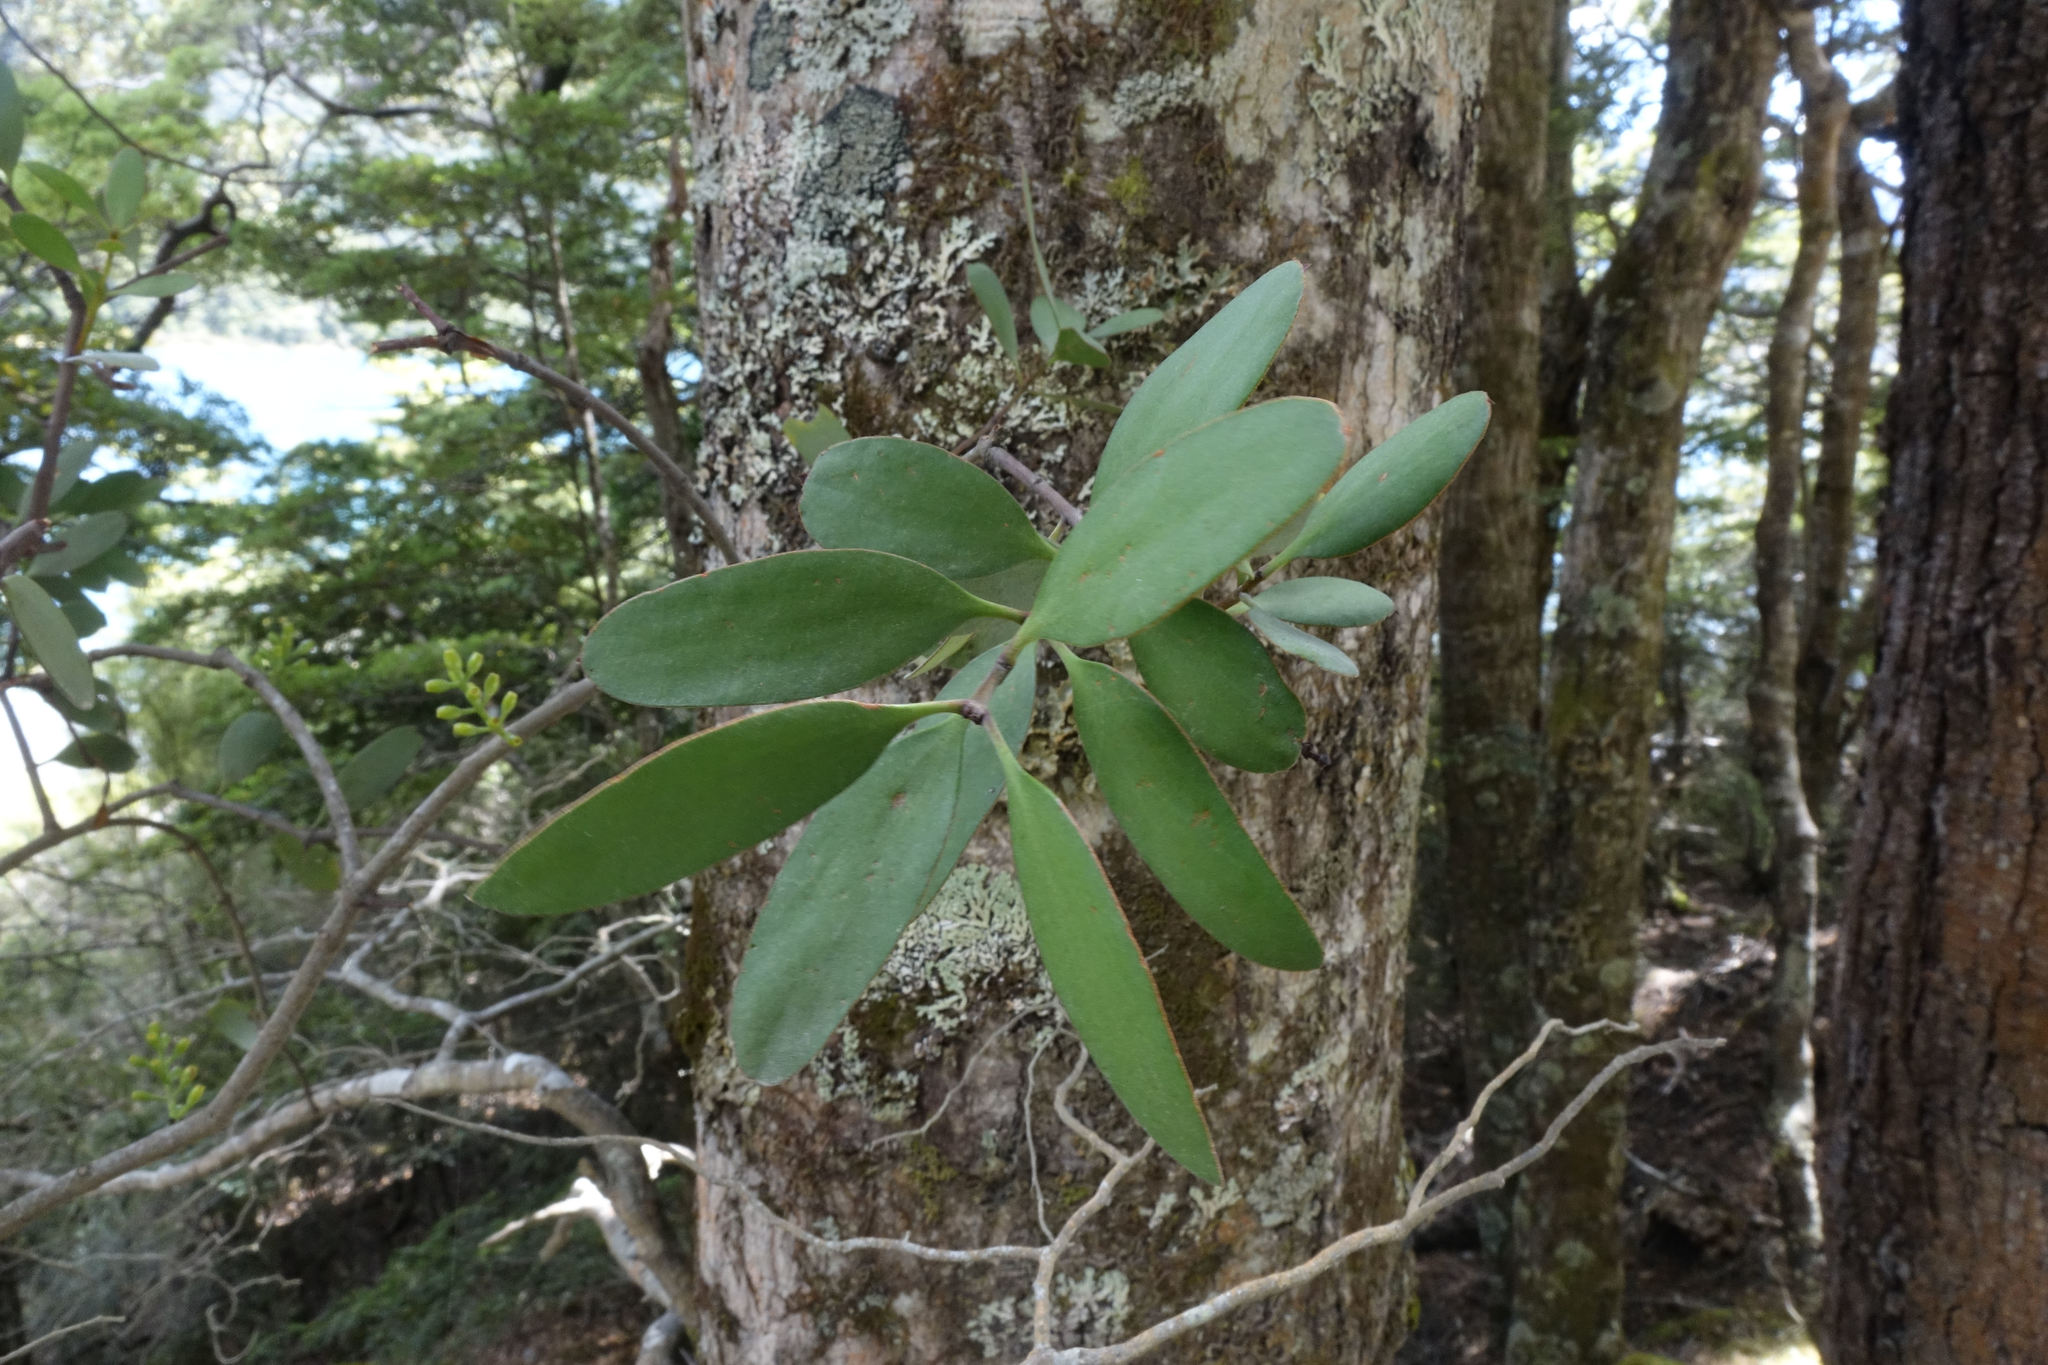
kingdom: Plantae
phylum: Tracheophyta
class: Magnoliopsida
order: Santalales
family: Loranthaceae
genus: Alepis
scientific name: Alepis flavida
